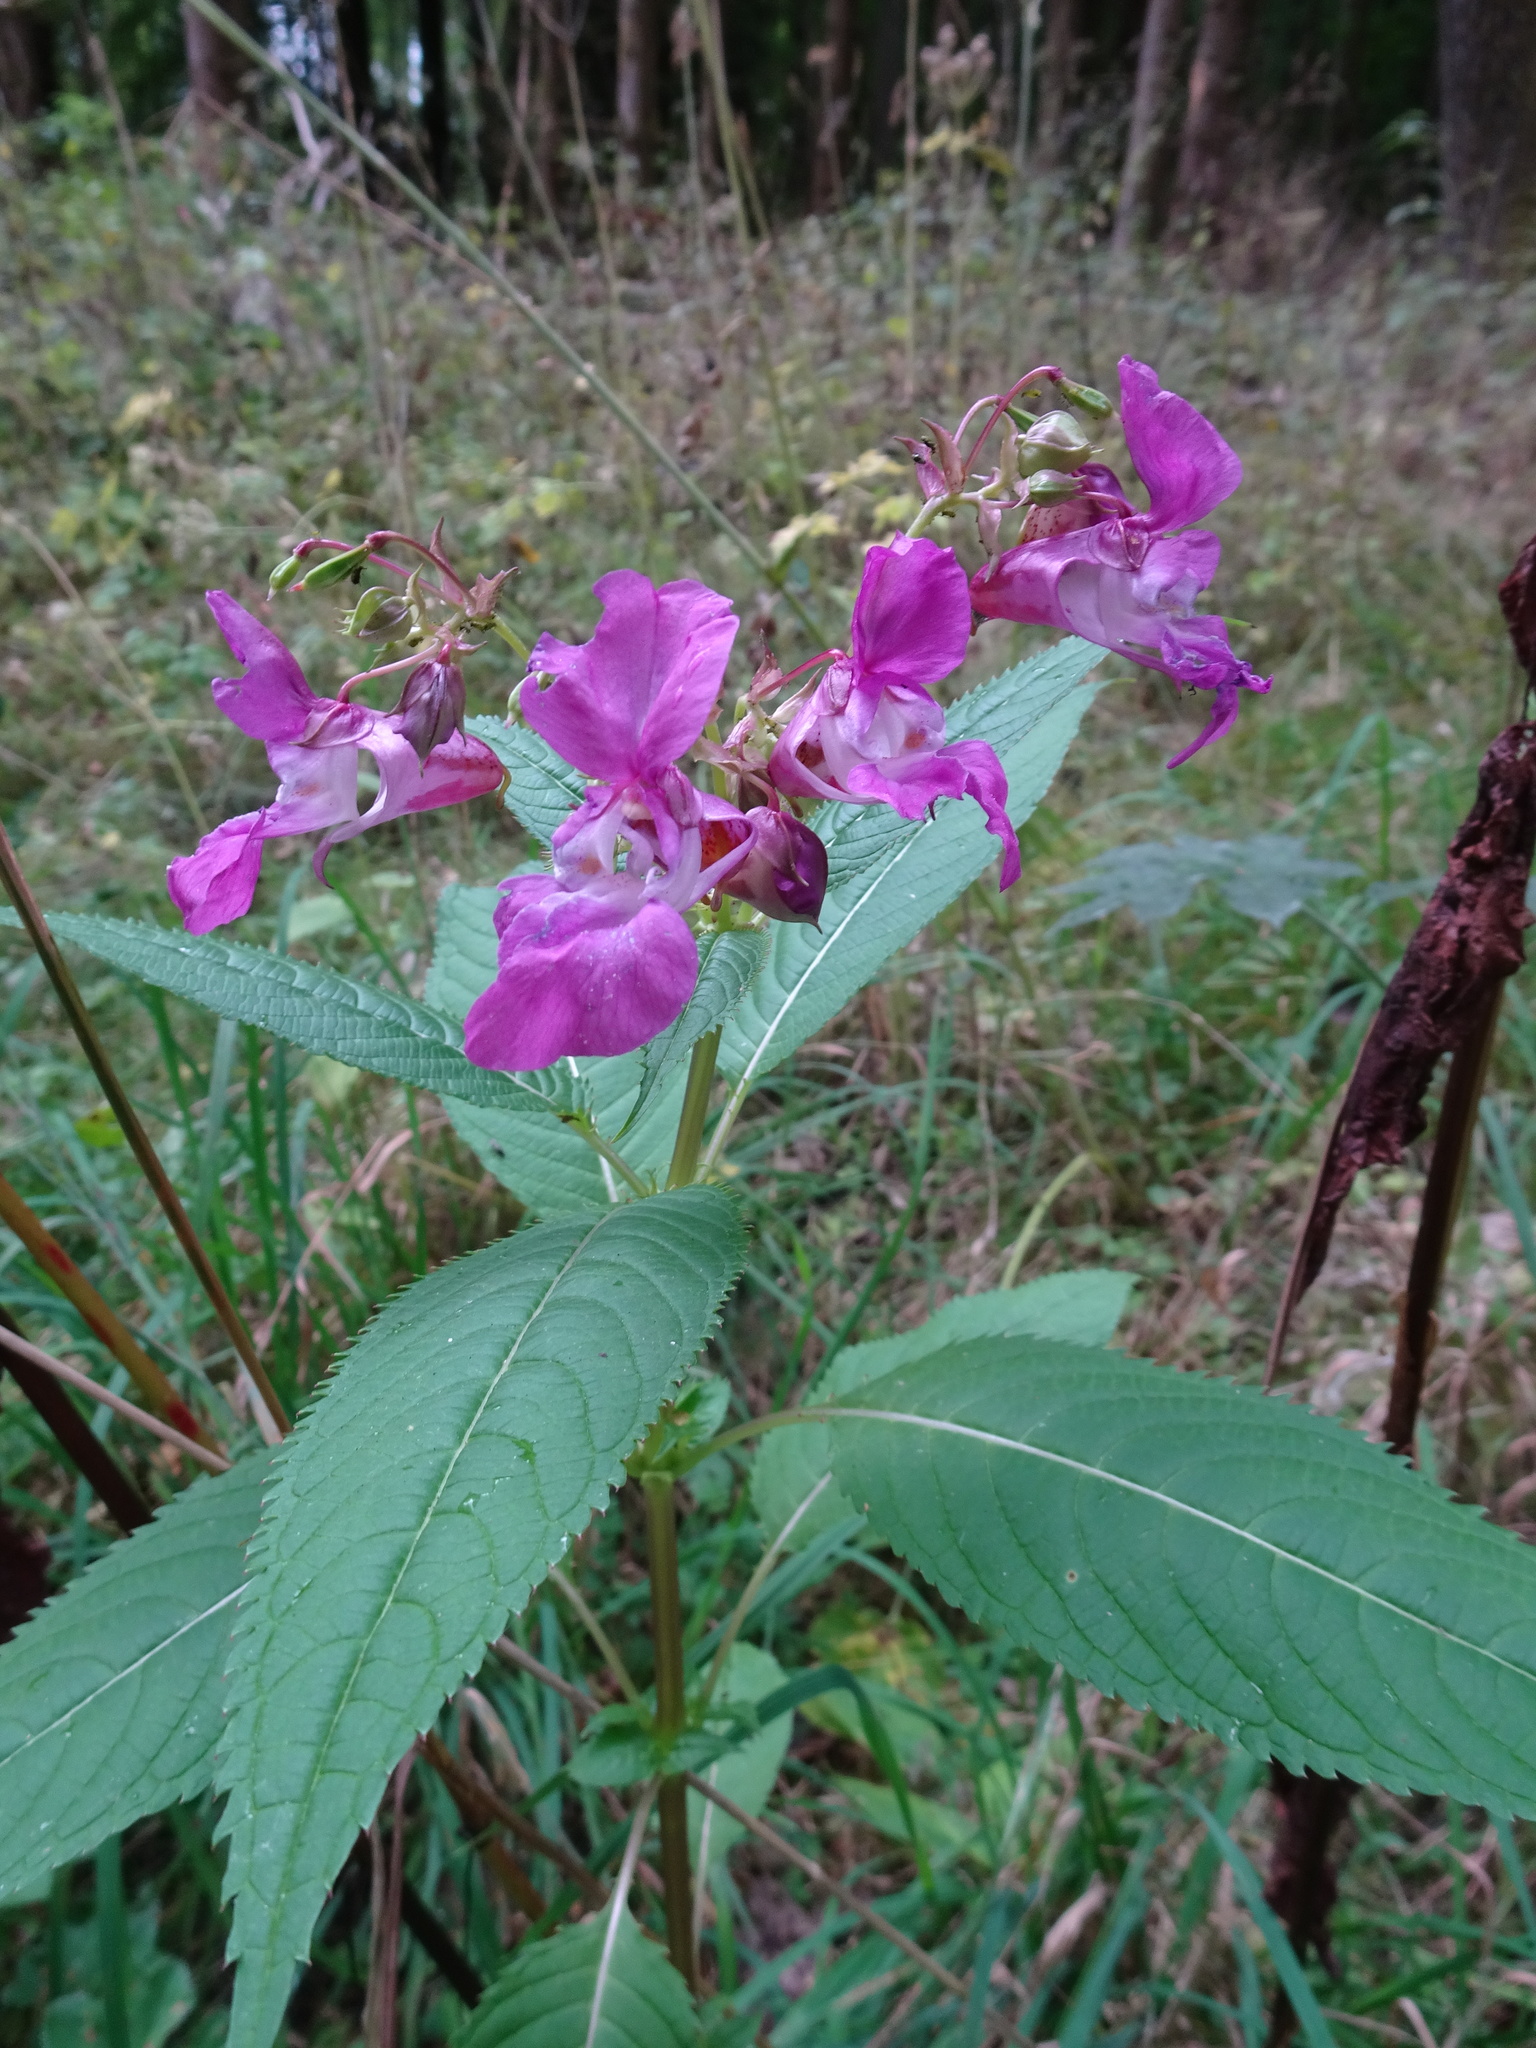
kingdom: Plantae
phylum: Tracheophyta
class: Magnoliopsida
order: Ericales
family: Balsaminaceae
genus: Impatiens
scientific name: Impatiens glandulifera
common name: Himalayan balsam
